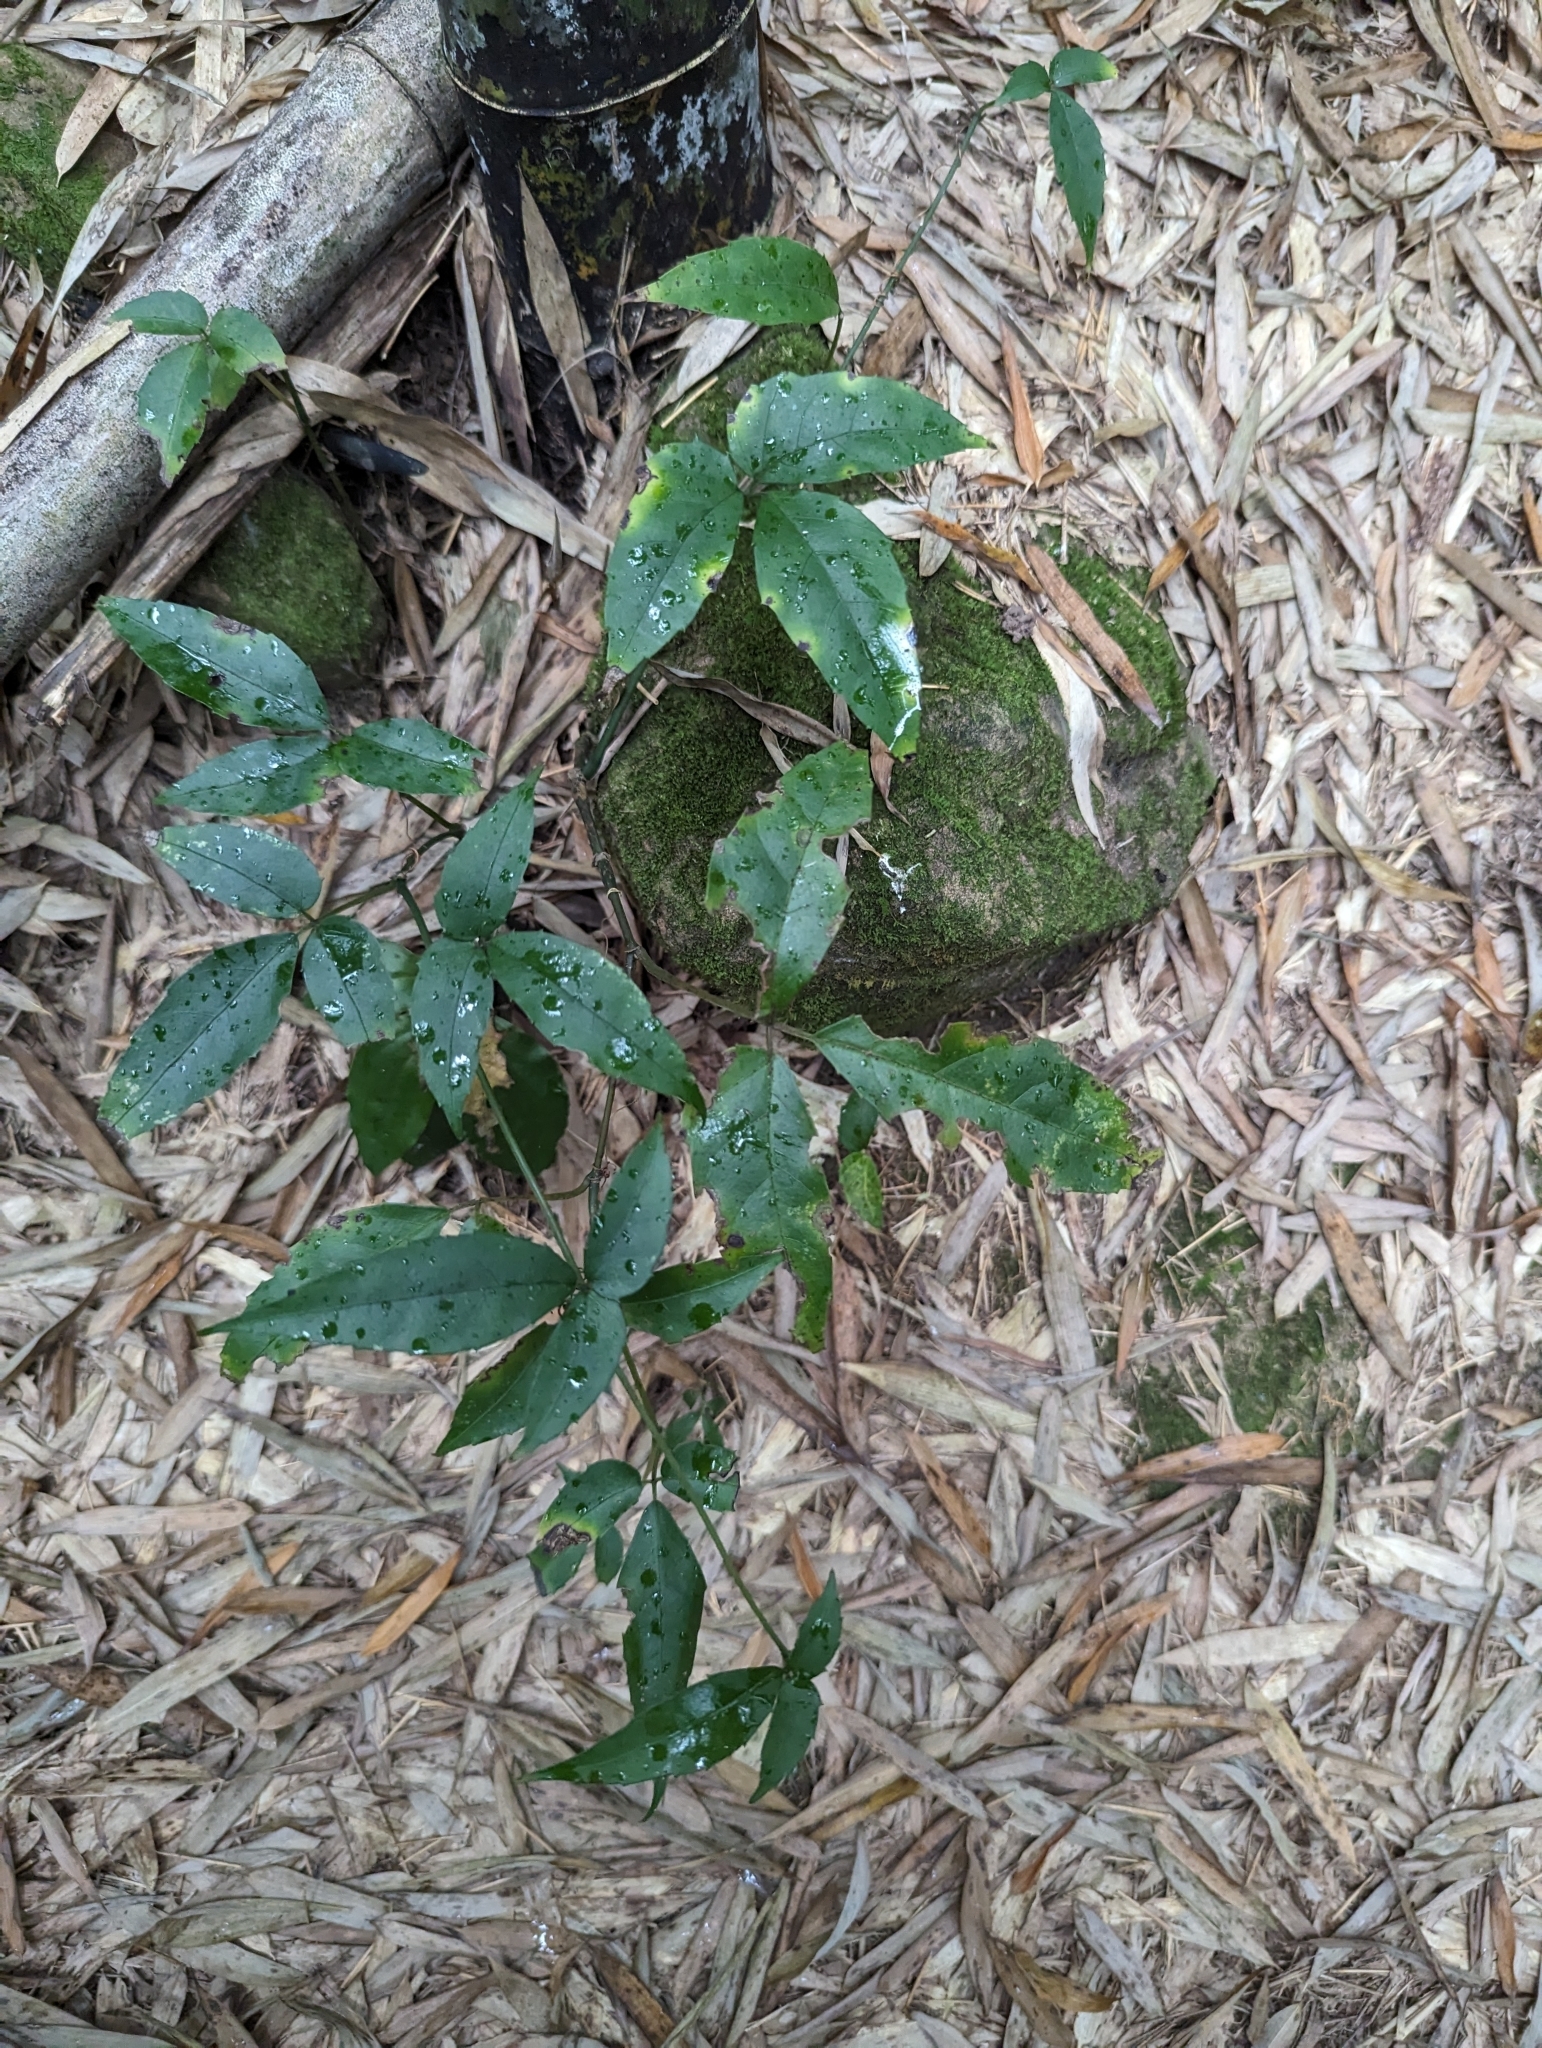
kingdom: Plantae
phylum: Tracheophyta
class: Magnoliopsida
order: Vitales
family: Vitaceae
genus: Tetrastigma
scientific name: Tetrastigma hemsleyanum
